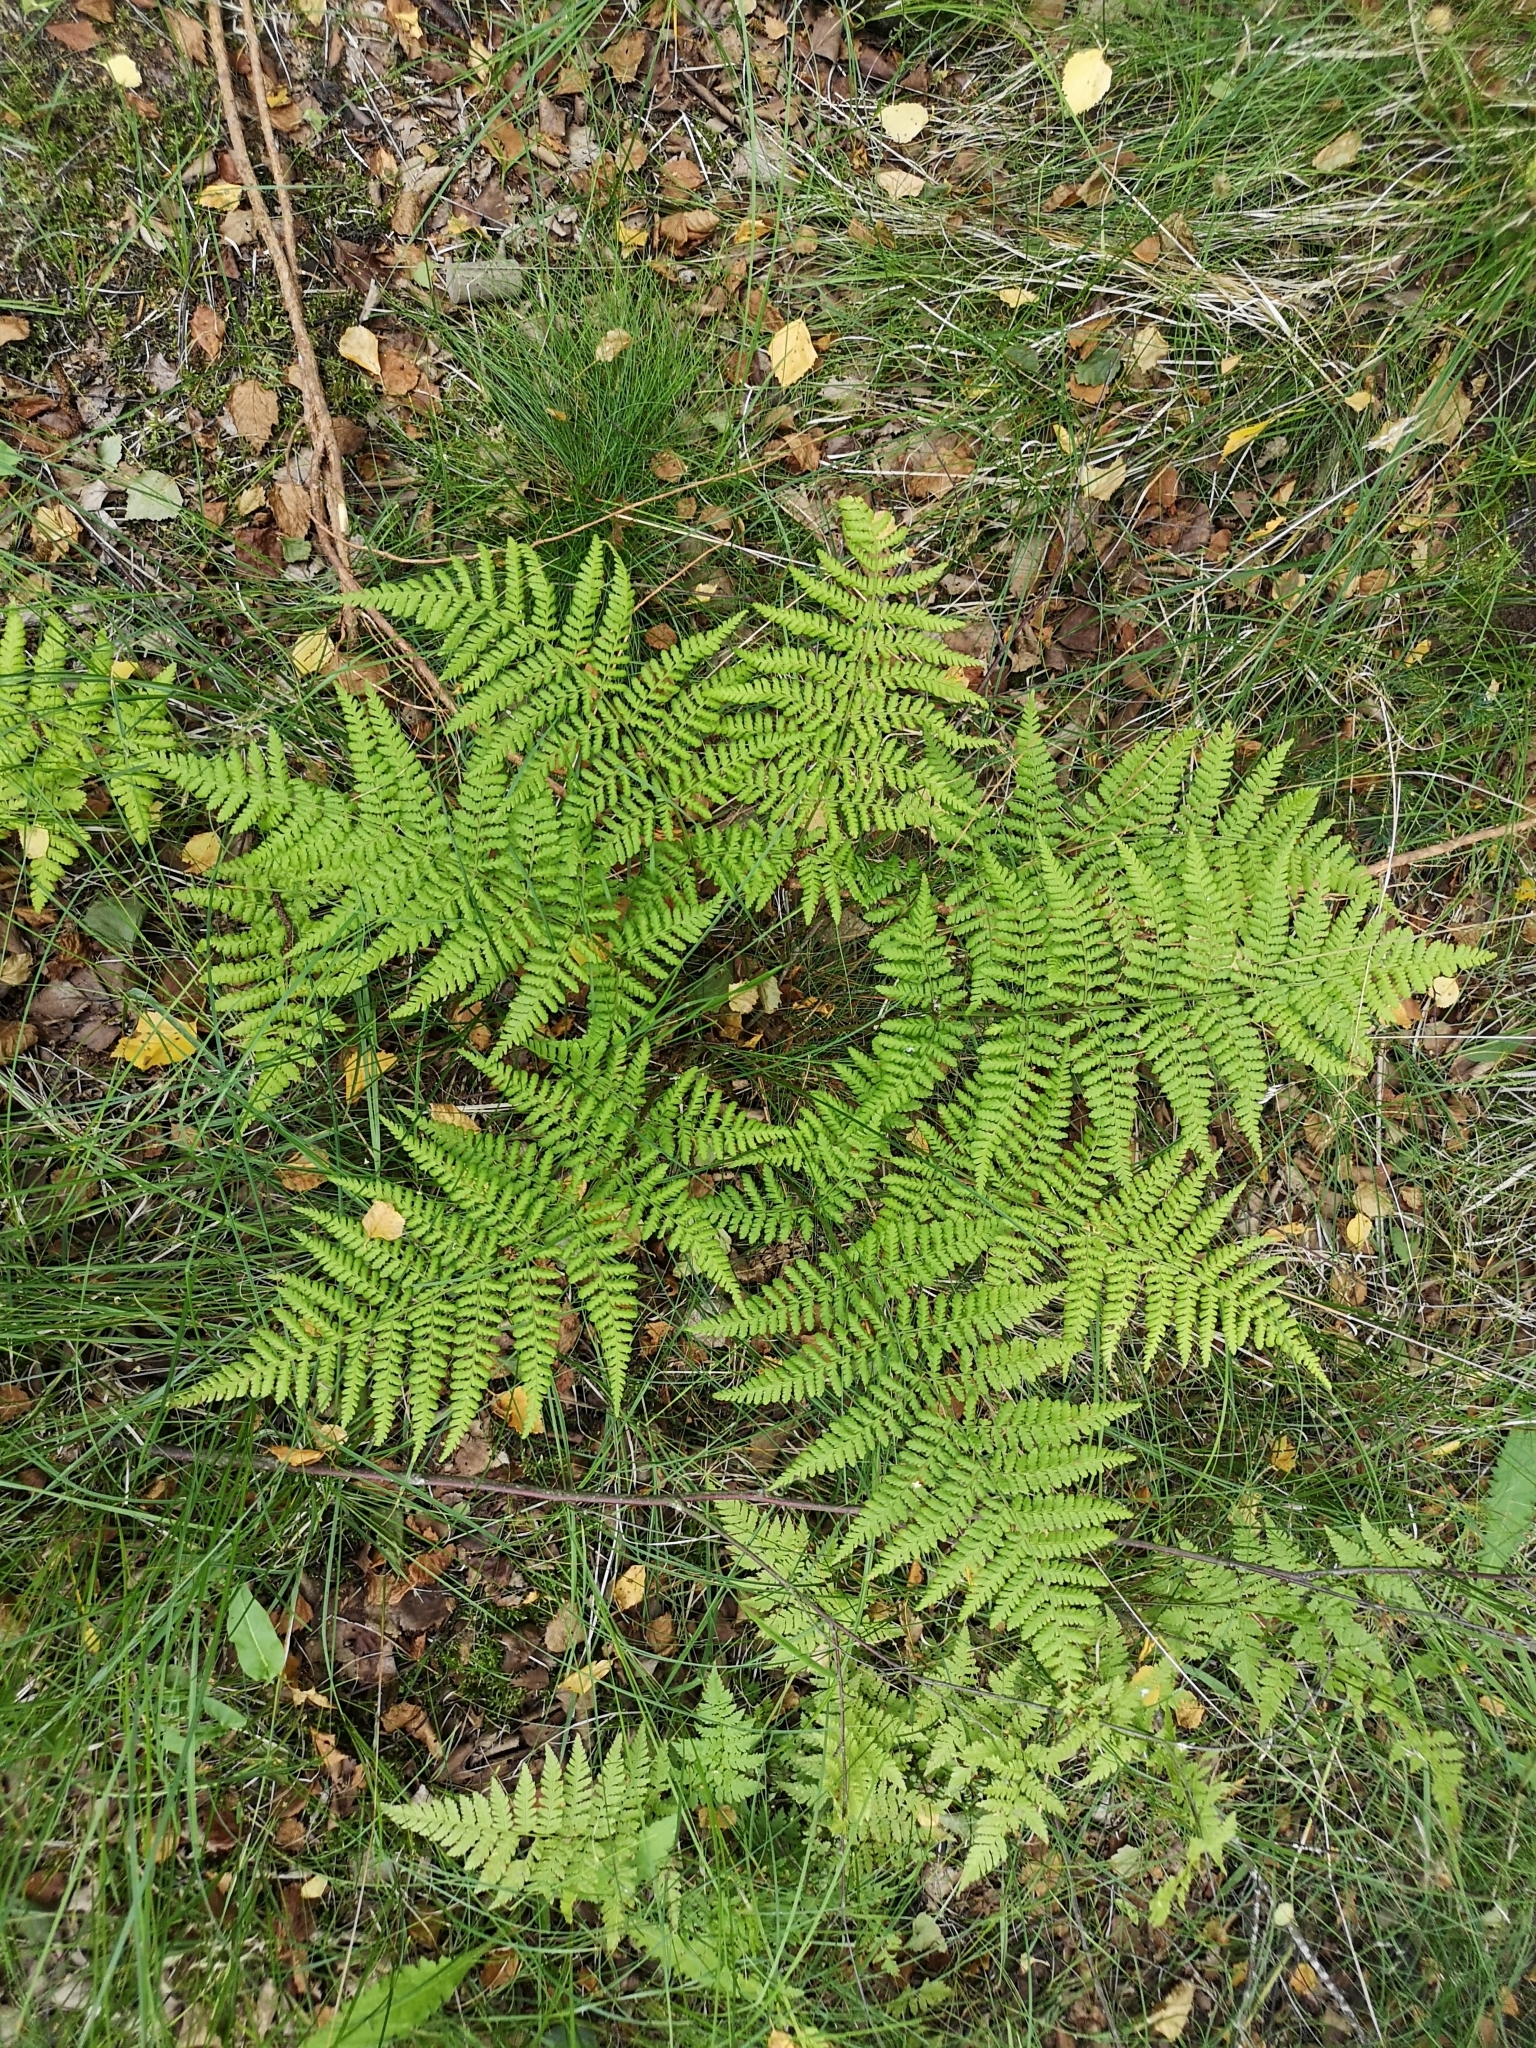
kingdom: Plantae
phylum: Tracheophyta
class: Polypodiopsida
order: Polypodiales
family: Dryopteridaceae
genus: Dryopteris
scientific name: Dryopteris dilatata
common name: Broad buckler-fern
